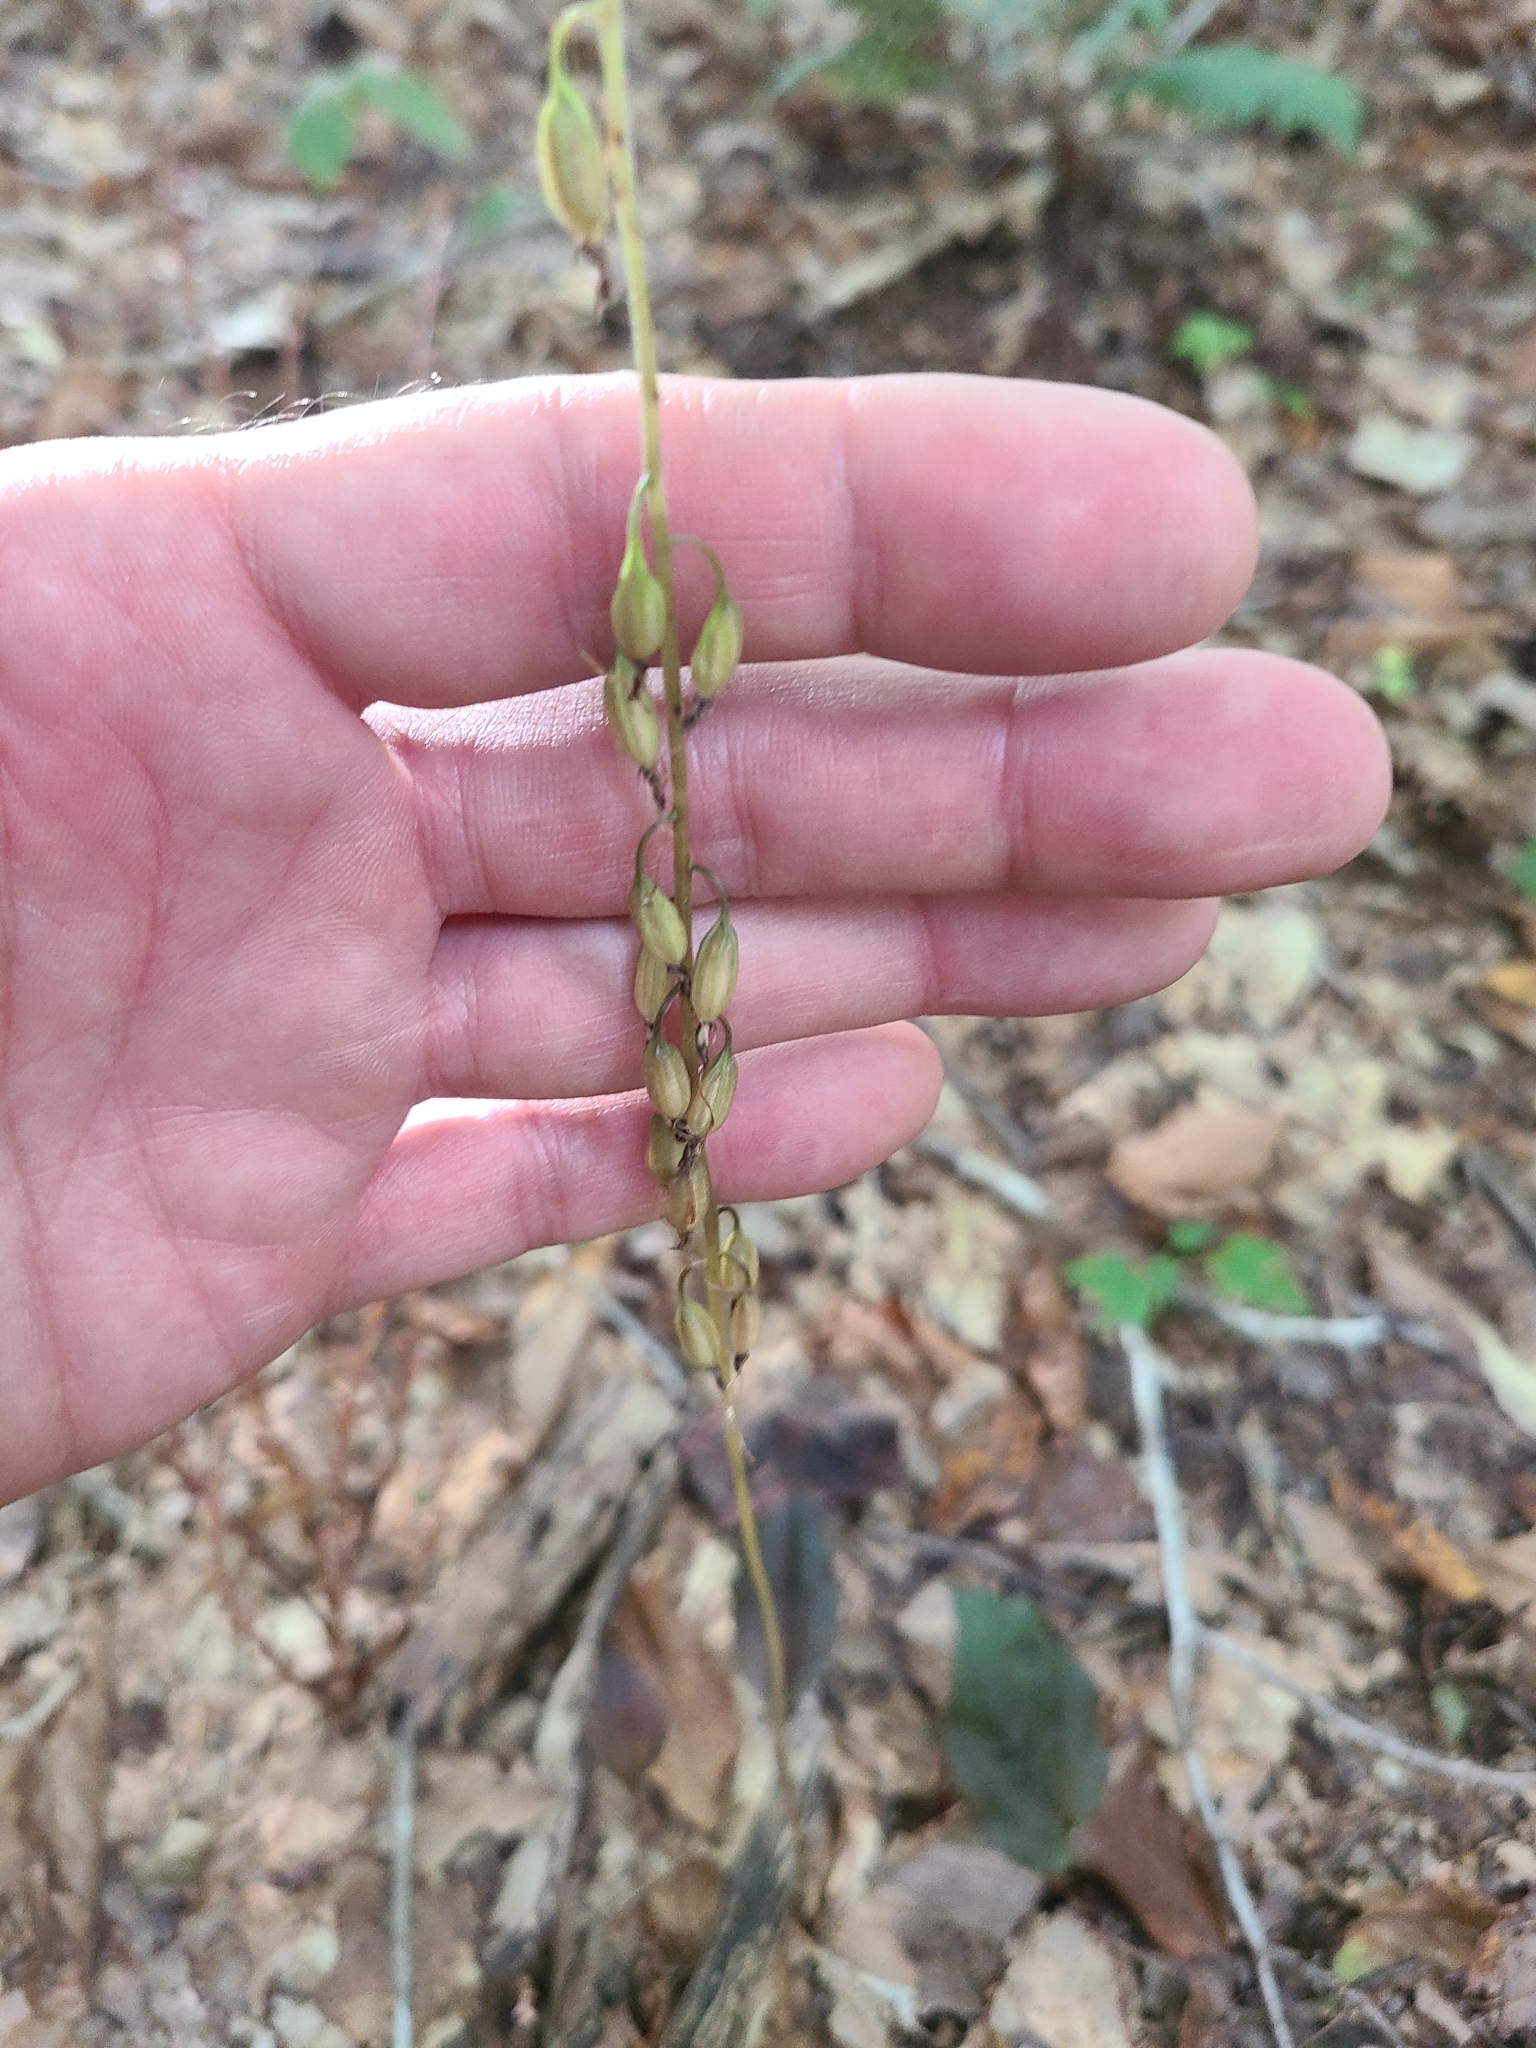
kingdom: Plantae
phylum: Tracheophyta
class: Liliopsida
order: Asparagales
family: Orchidaceae
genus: Tipularia
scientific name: Tipularia discolor
